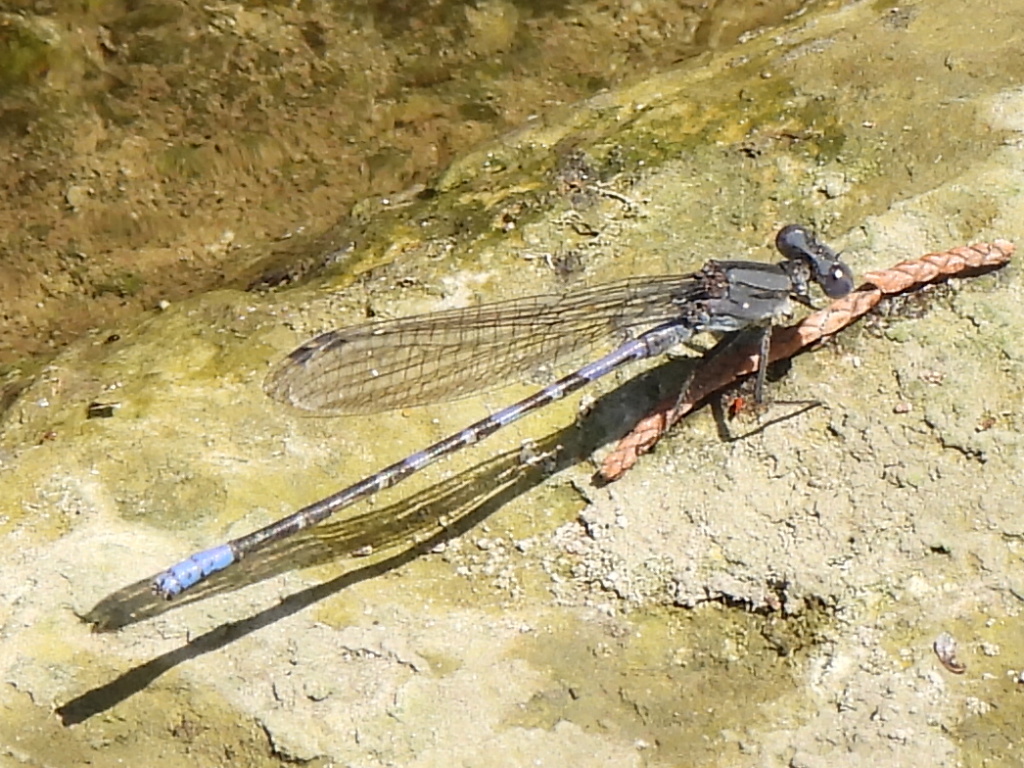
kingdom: Animalia
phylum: Arthropoda
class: Insecta
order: Odonata
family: Coenagrionidae
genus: Argia
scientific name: Argia immunda
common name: Kiowa dancer
